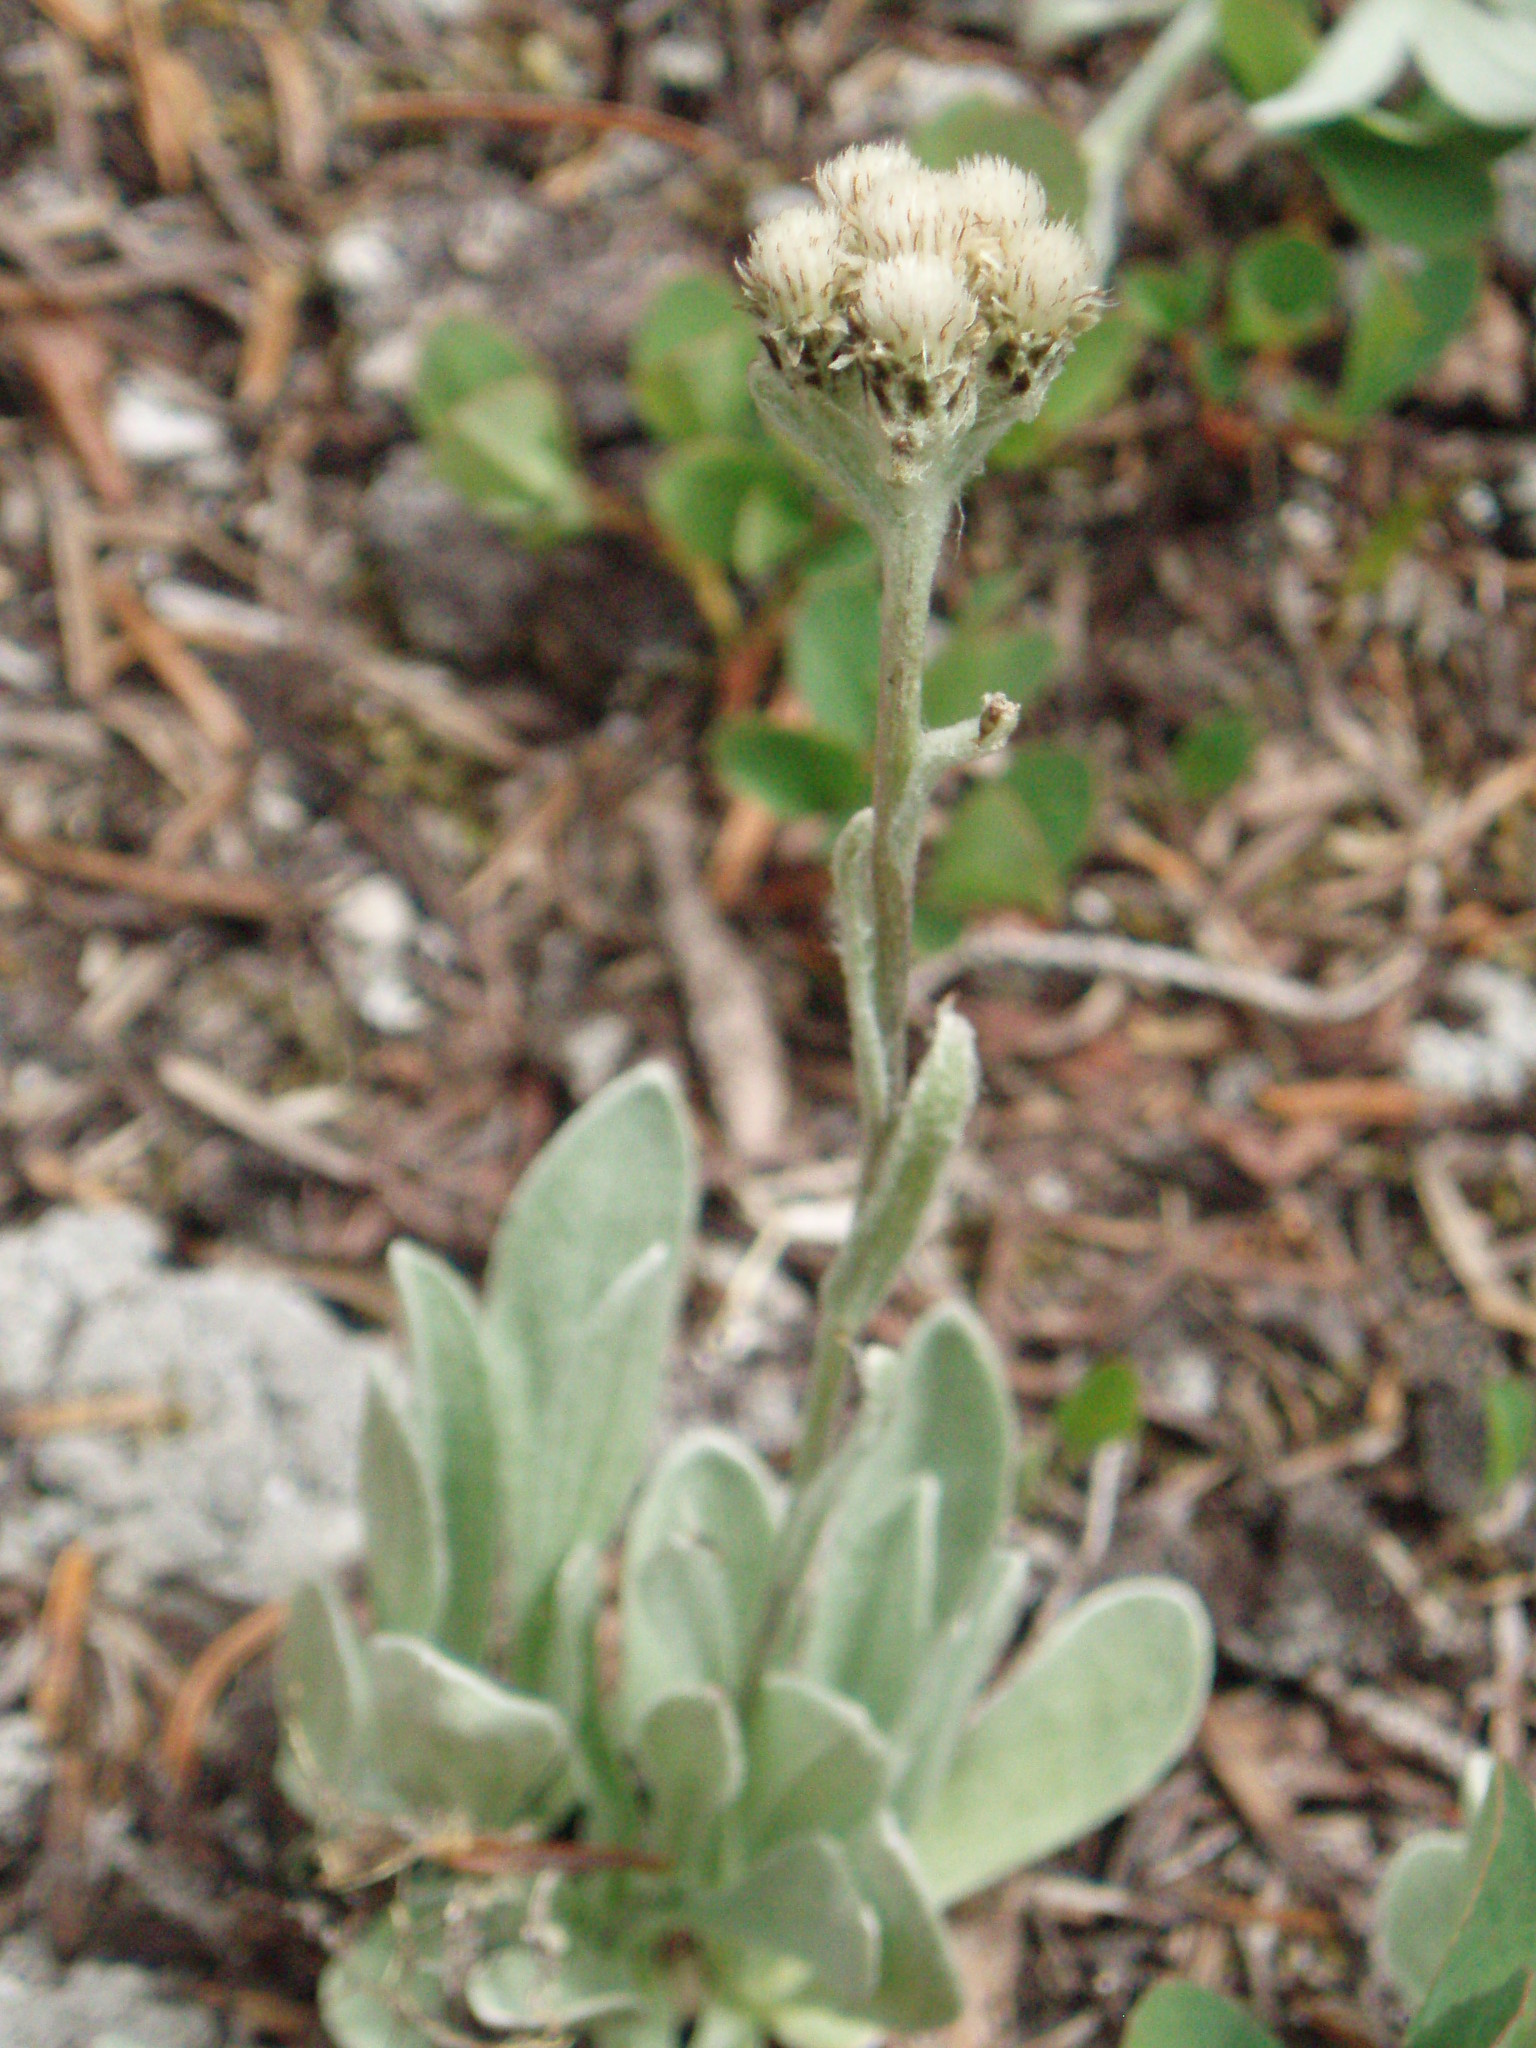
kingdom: Plantae
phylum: Tracheophyta
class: Magnoliopsida
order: Asterales
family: Asteraceae
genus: Antennaria
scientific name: Antennaria lanata
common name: Woolly pussytoes
